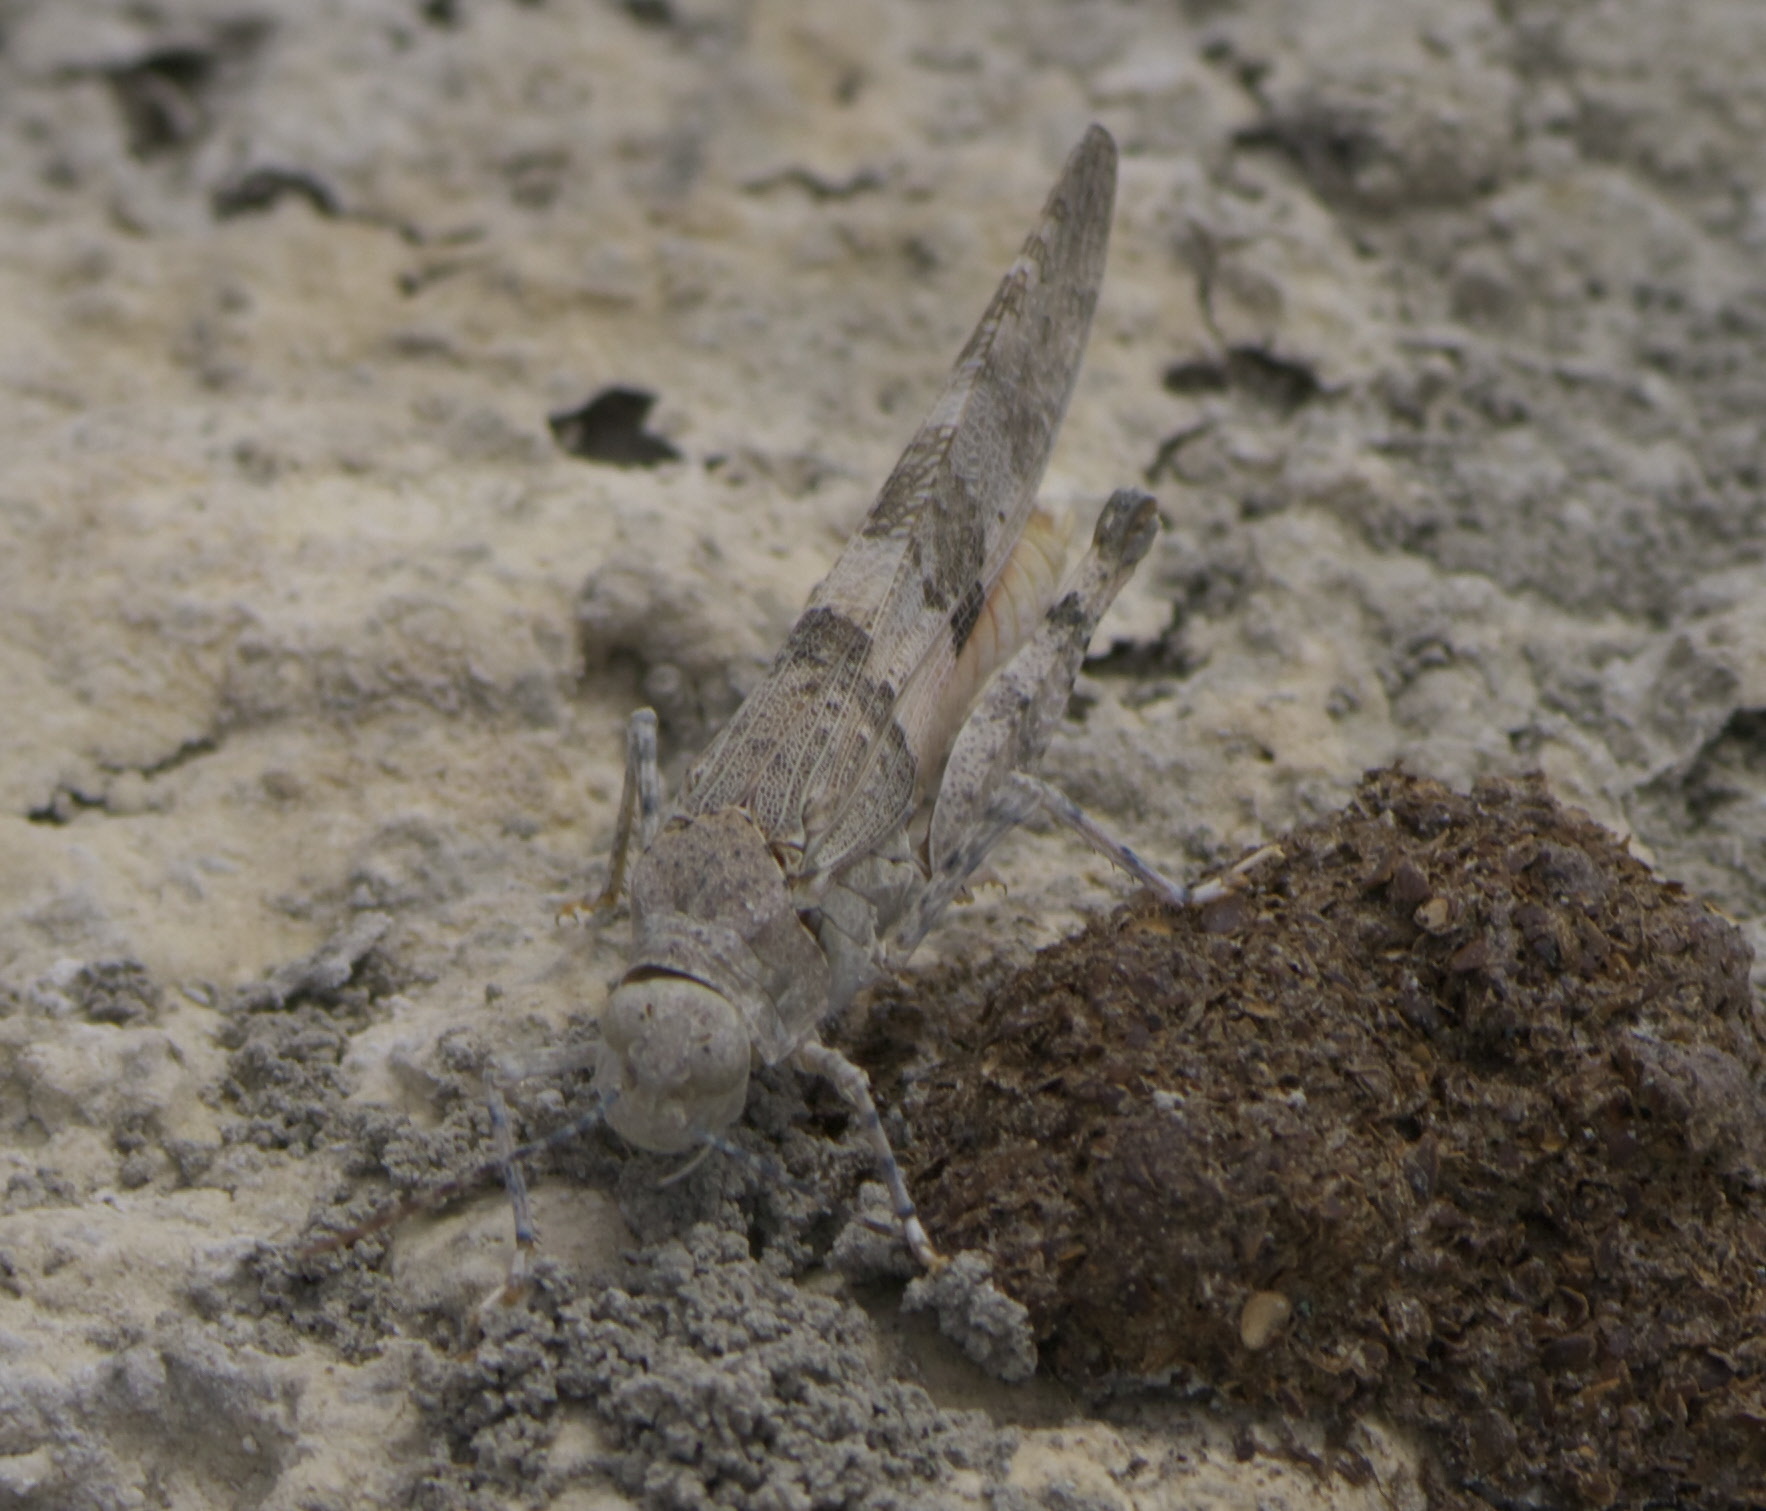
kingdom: Animalia
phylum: Arthropoda
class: Insecta
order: Orthoptera
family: Acrididae
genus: Trimerotropis
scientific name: Trimerotropis latifasciata
